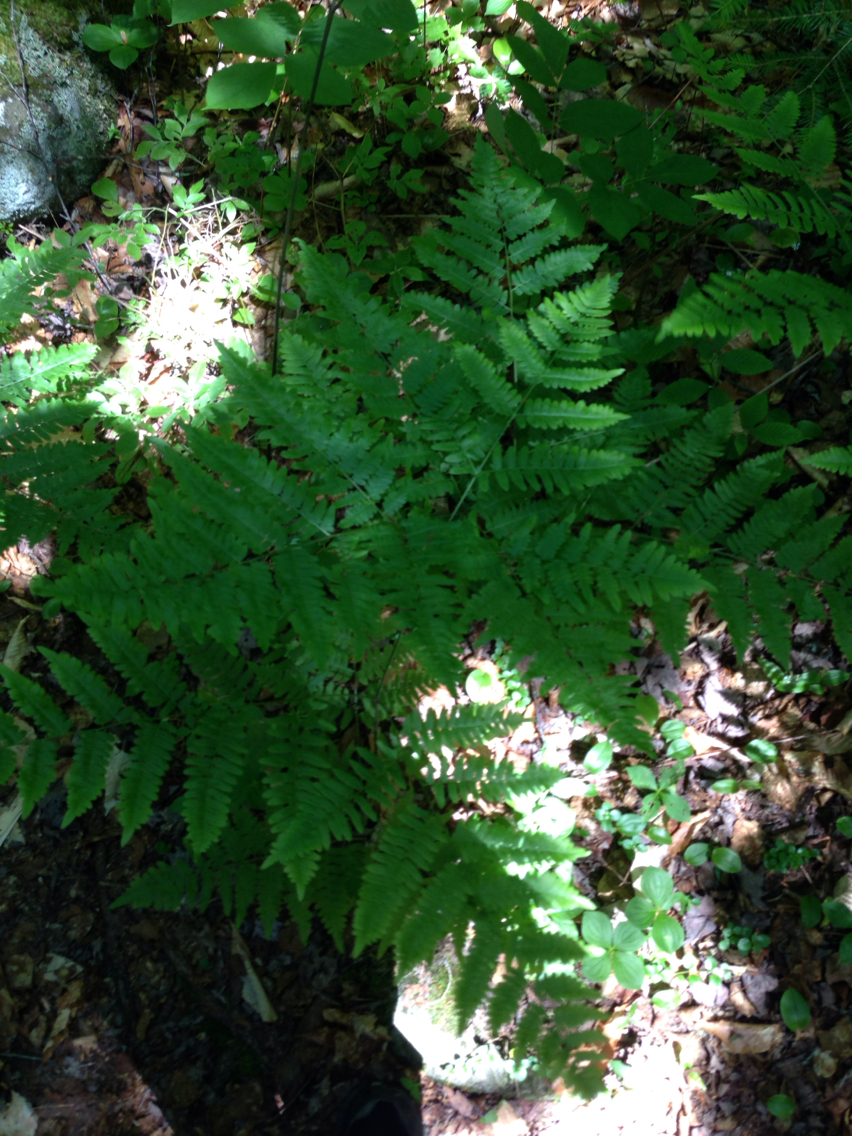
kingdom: Plantae
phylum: Tracheophyta
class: Polypodiopsida
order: Polypodiales
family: Dennstaedtiaceae
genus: Pteridium
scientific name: Pteridium aquilinum
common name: Bracken
